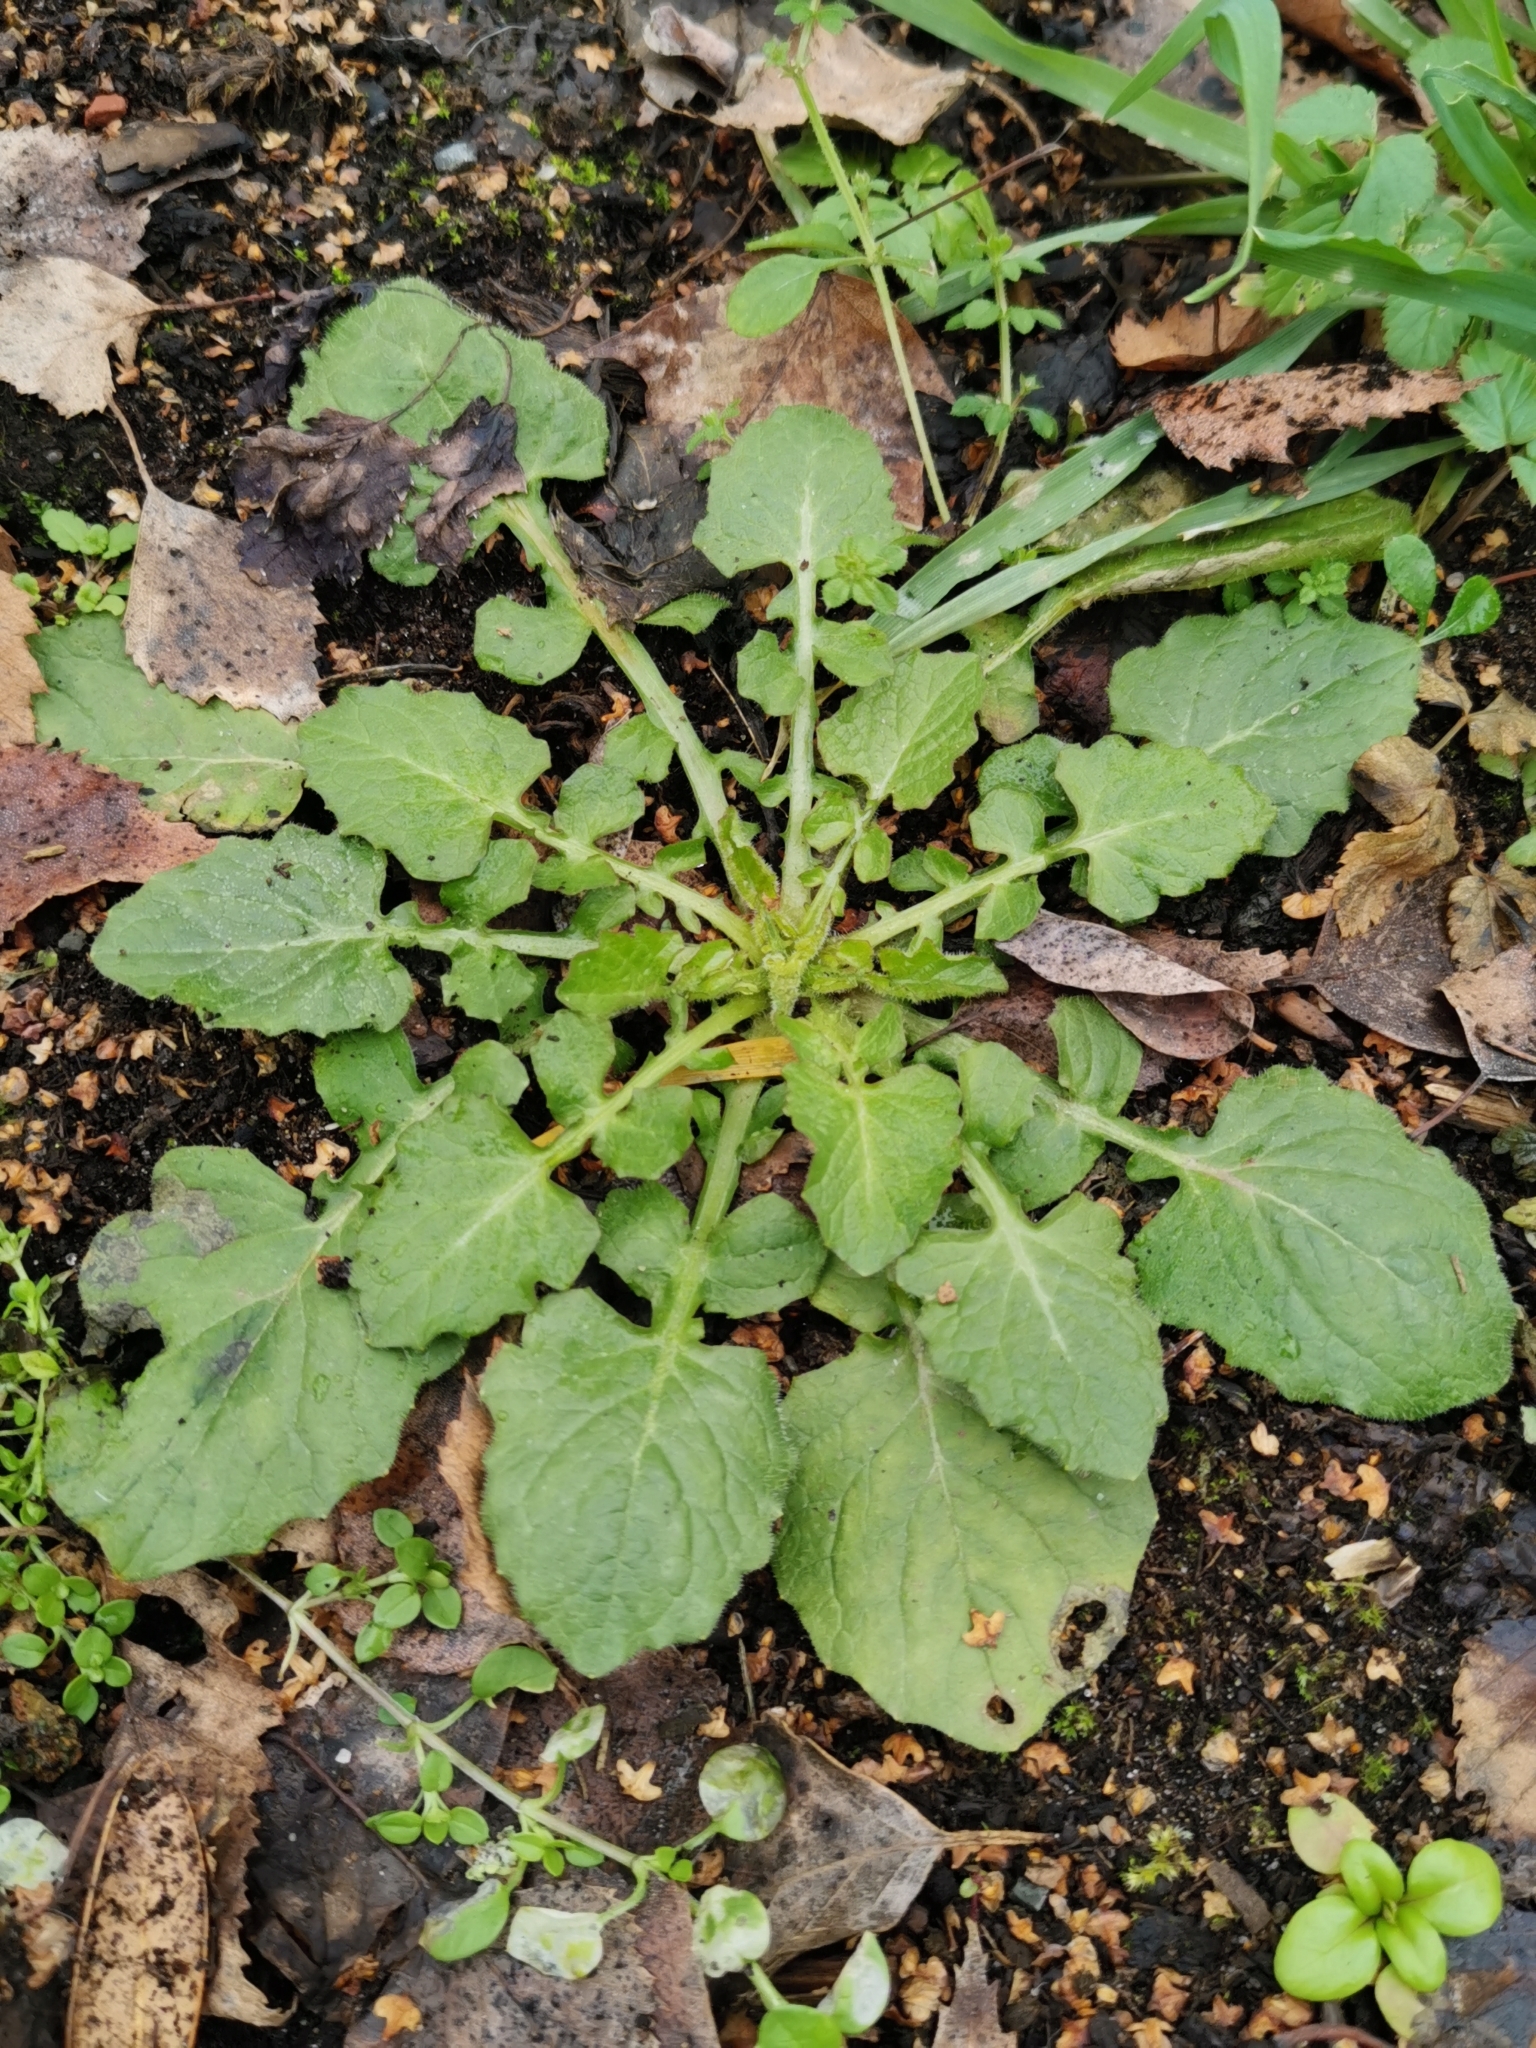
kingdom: Plantae
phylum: Tracheophyta
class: Magnoliopsida
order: Asterales
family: Asteraceae
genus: Lapsana
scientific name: Lapsana communis
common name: Nipplewort
